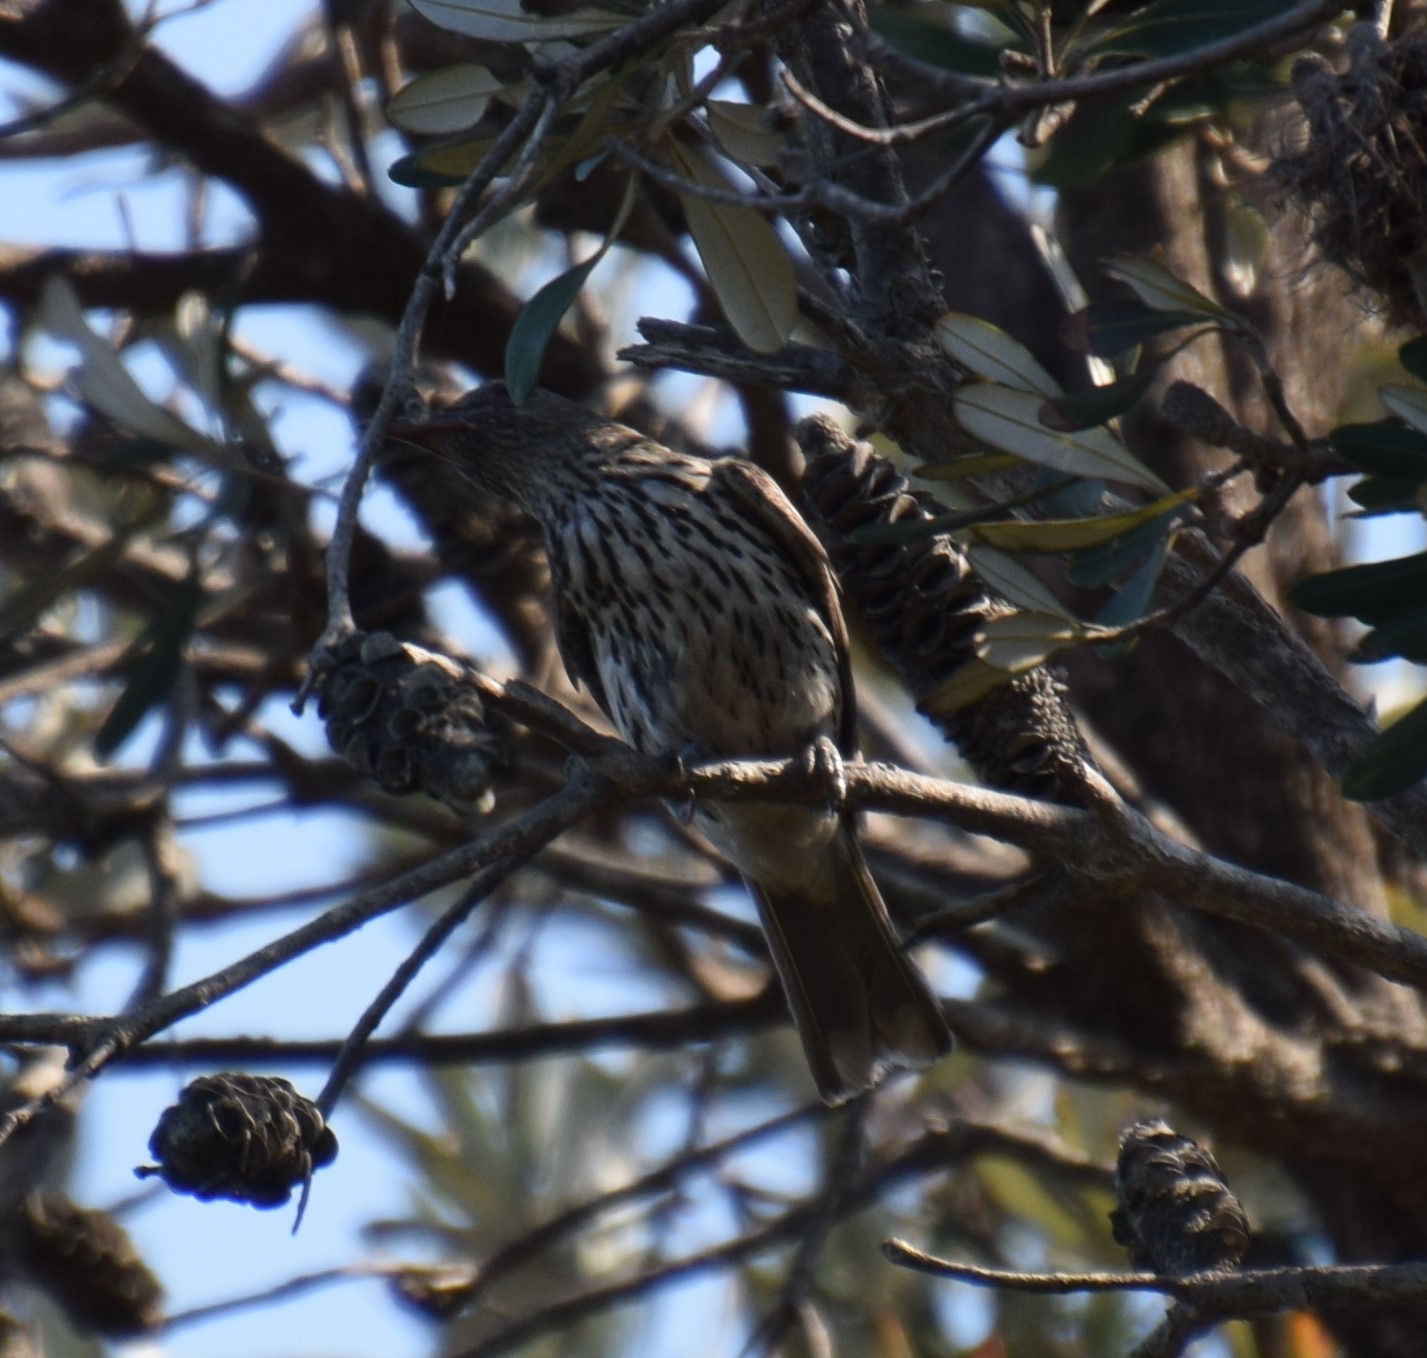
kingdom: Animalia
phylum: Chordata
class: Aves
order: Passeriformes
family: Oriolidae
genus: Oriolus
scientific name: Oriolus sagittatus
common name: Olive-backed oriole
